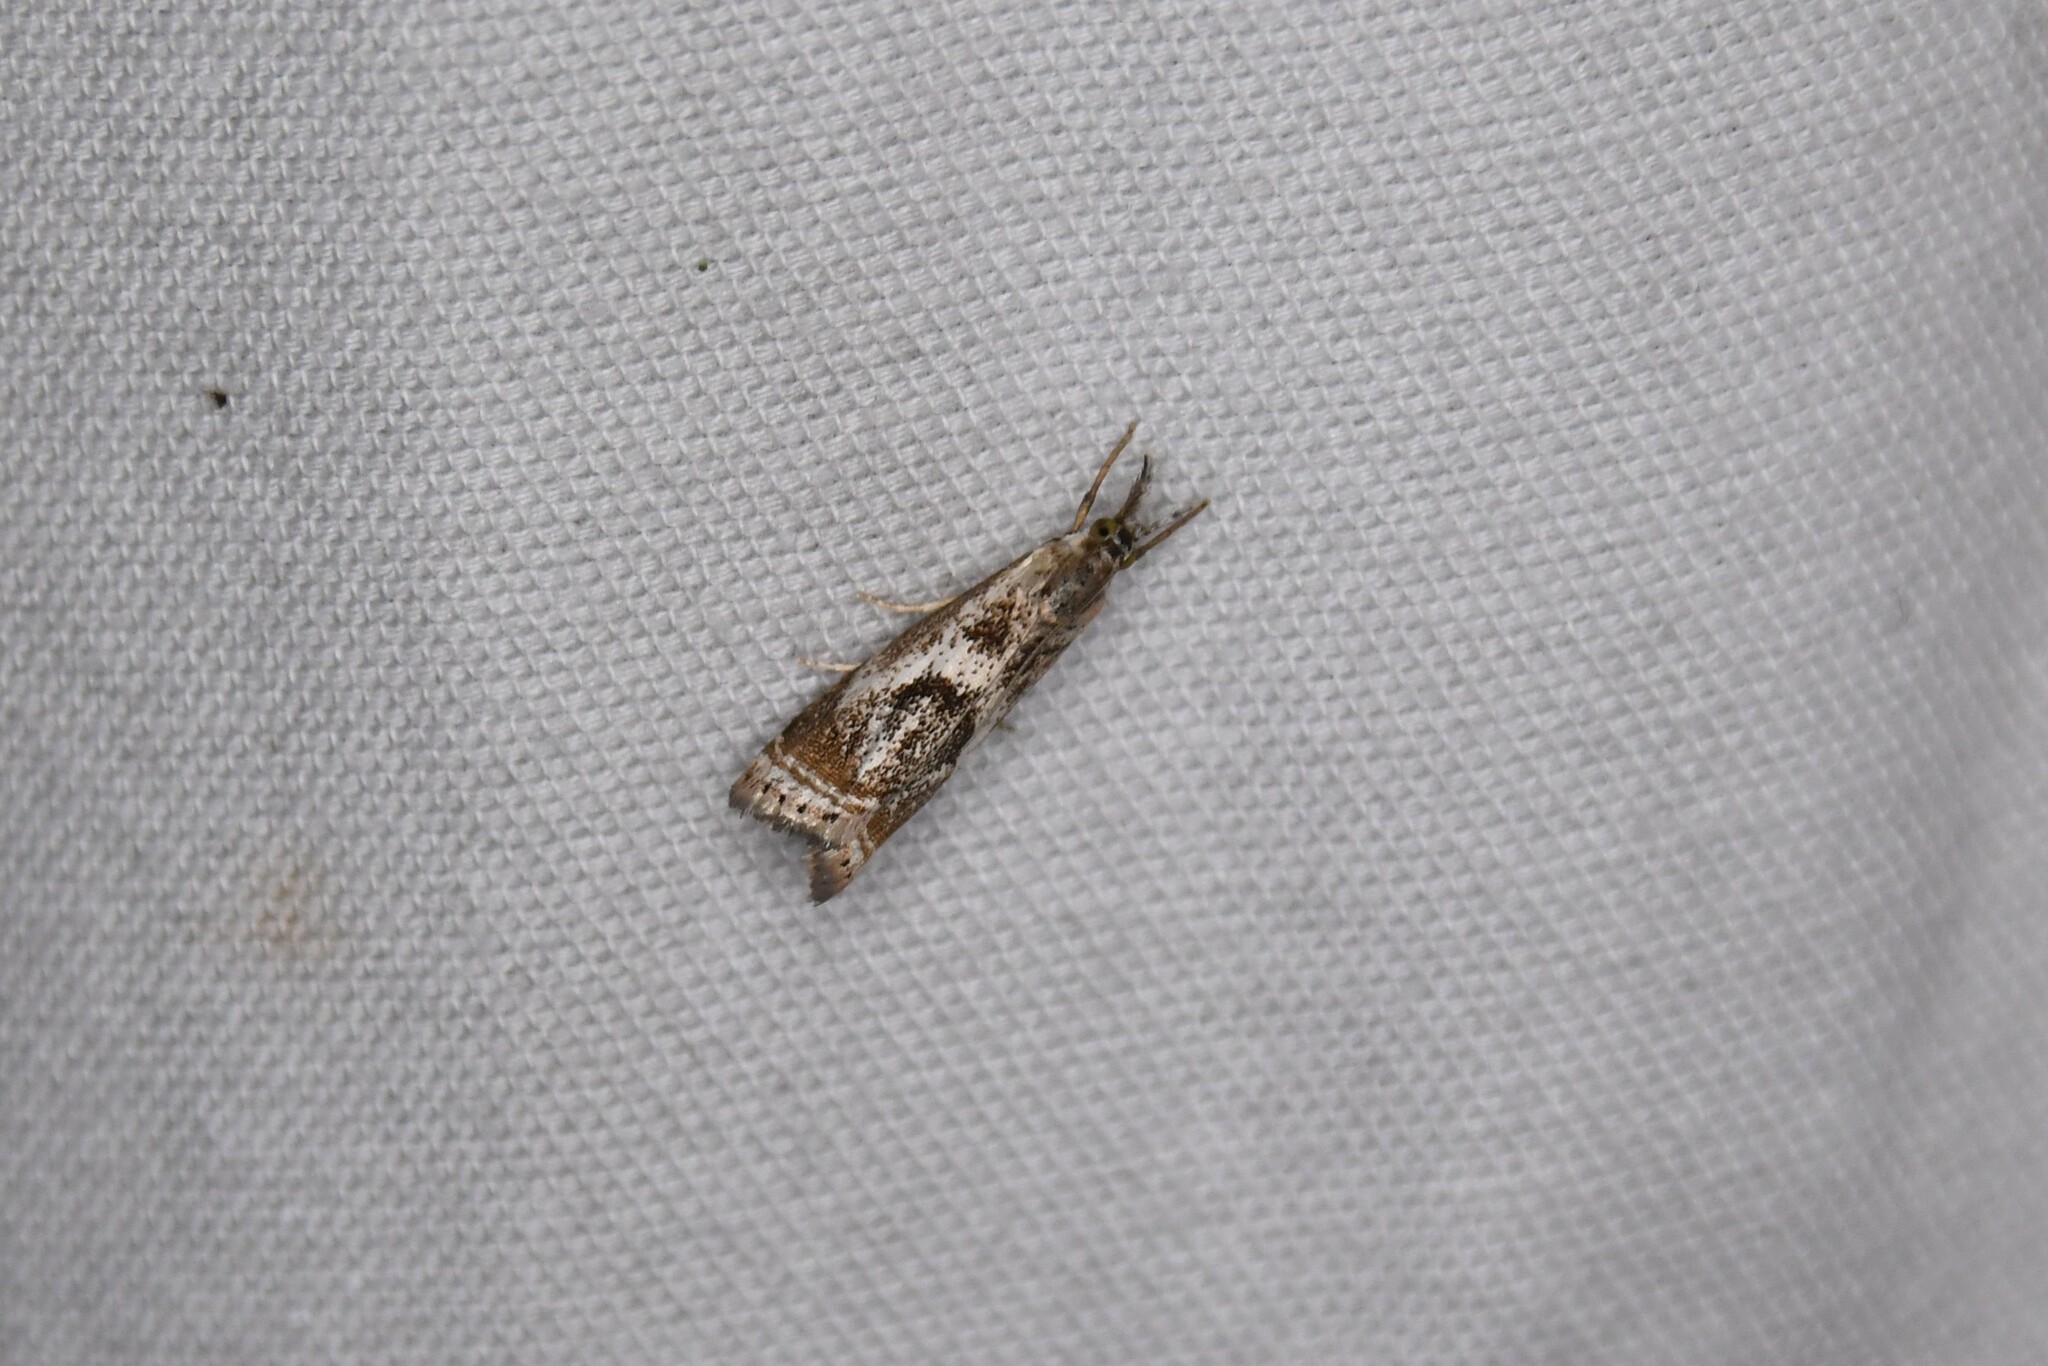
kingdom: Animalia
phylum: Arthropoda
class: Insecta
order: Lepidoptera
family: Crambidae
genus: Microcrambus
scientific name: Microcrambus elegans
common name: Elegant grass-veneer
